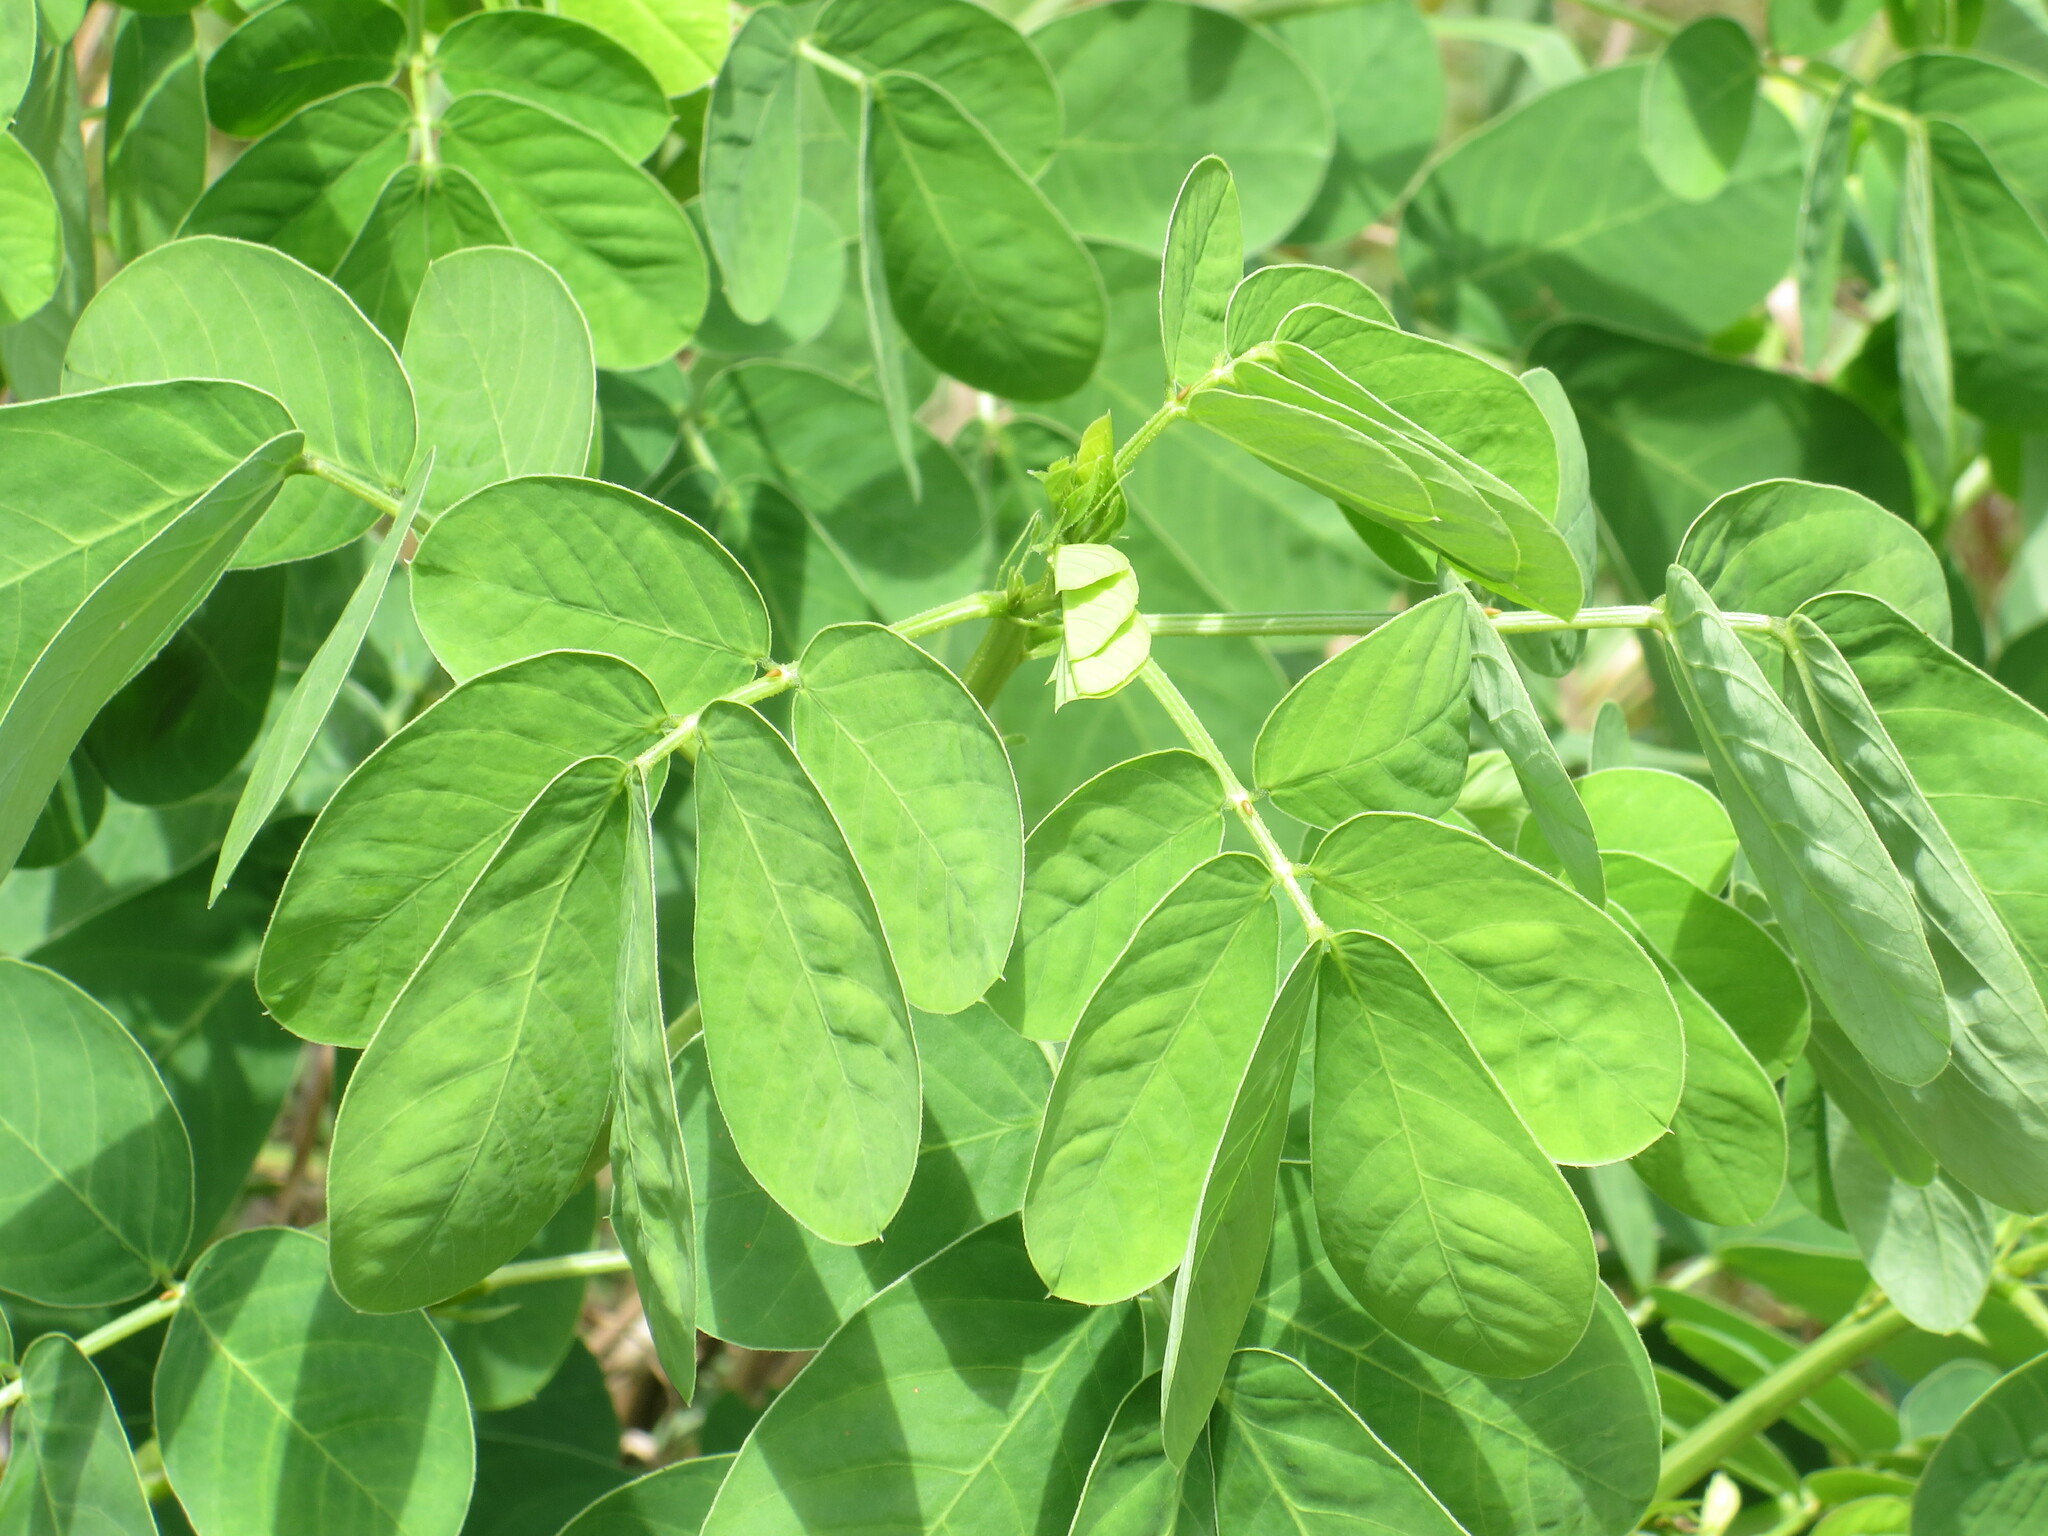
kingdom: Plantae
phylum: Tracheophyta
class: Magnoliopsida
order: Fabales
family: Fabaceae
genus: Senna
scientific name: Senna obtusifolia
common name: Java-bean
